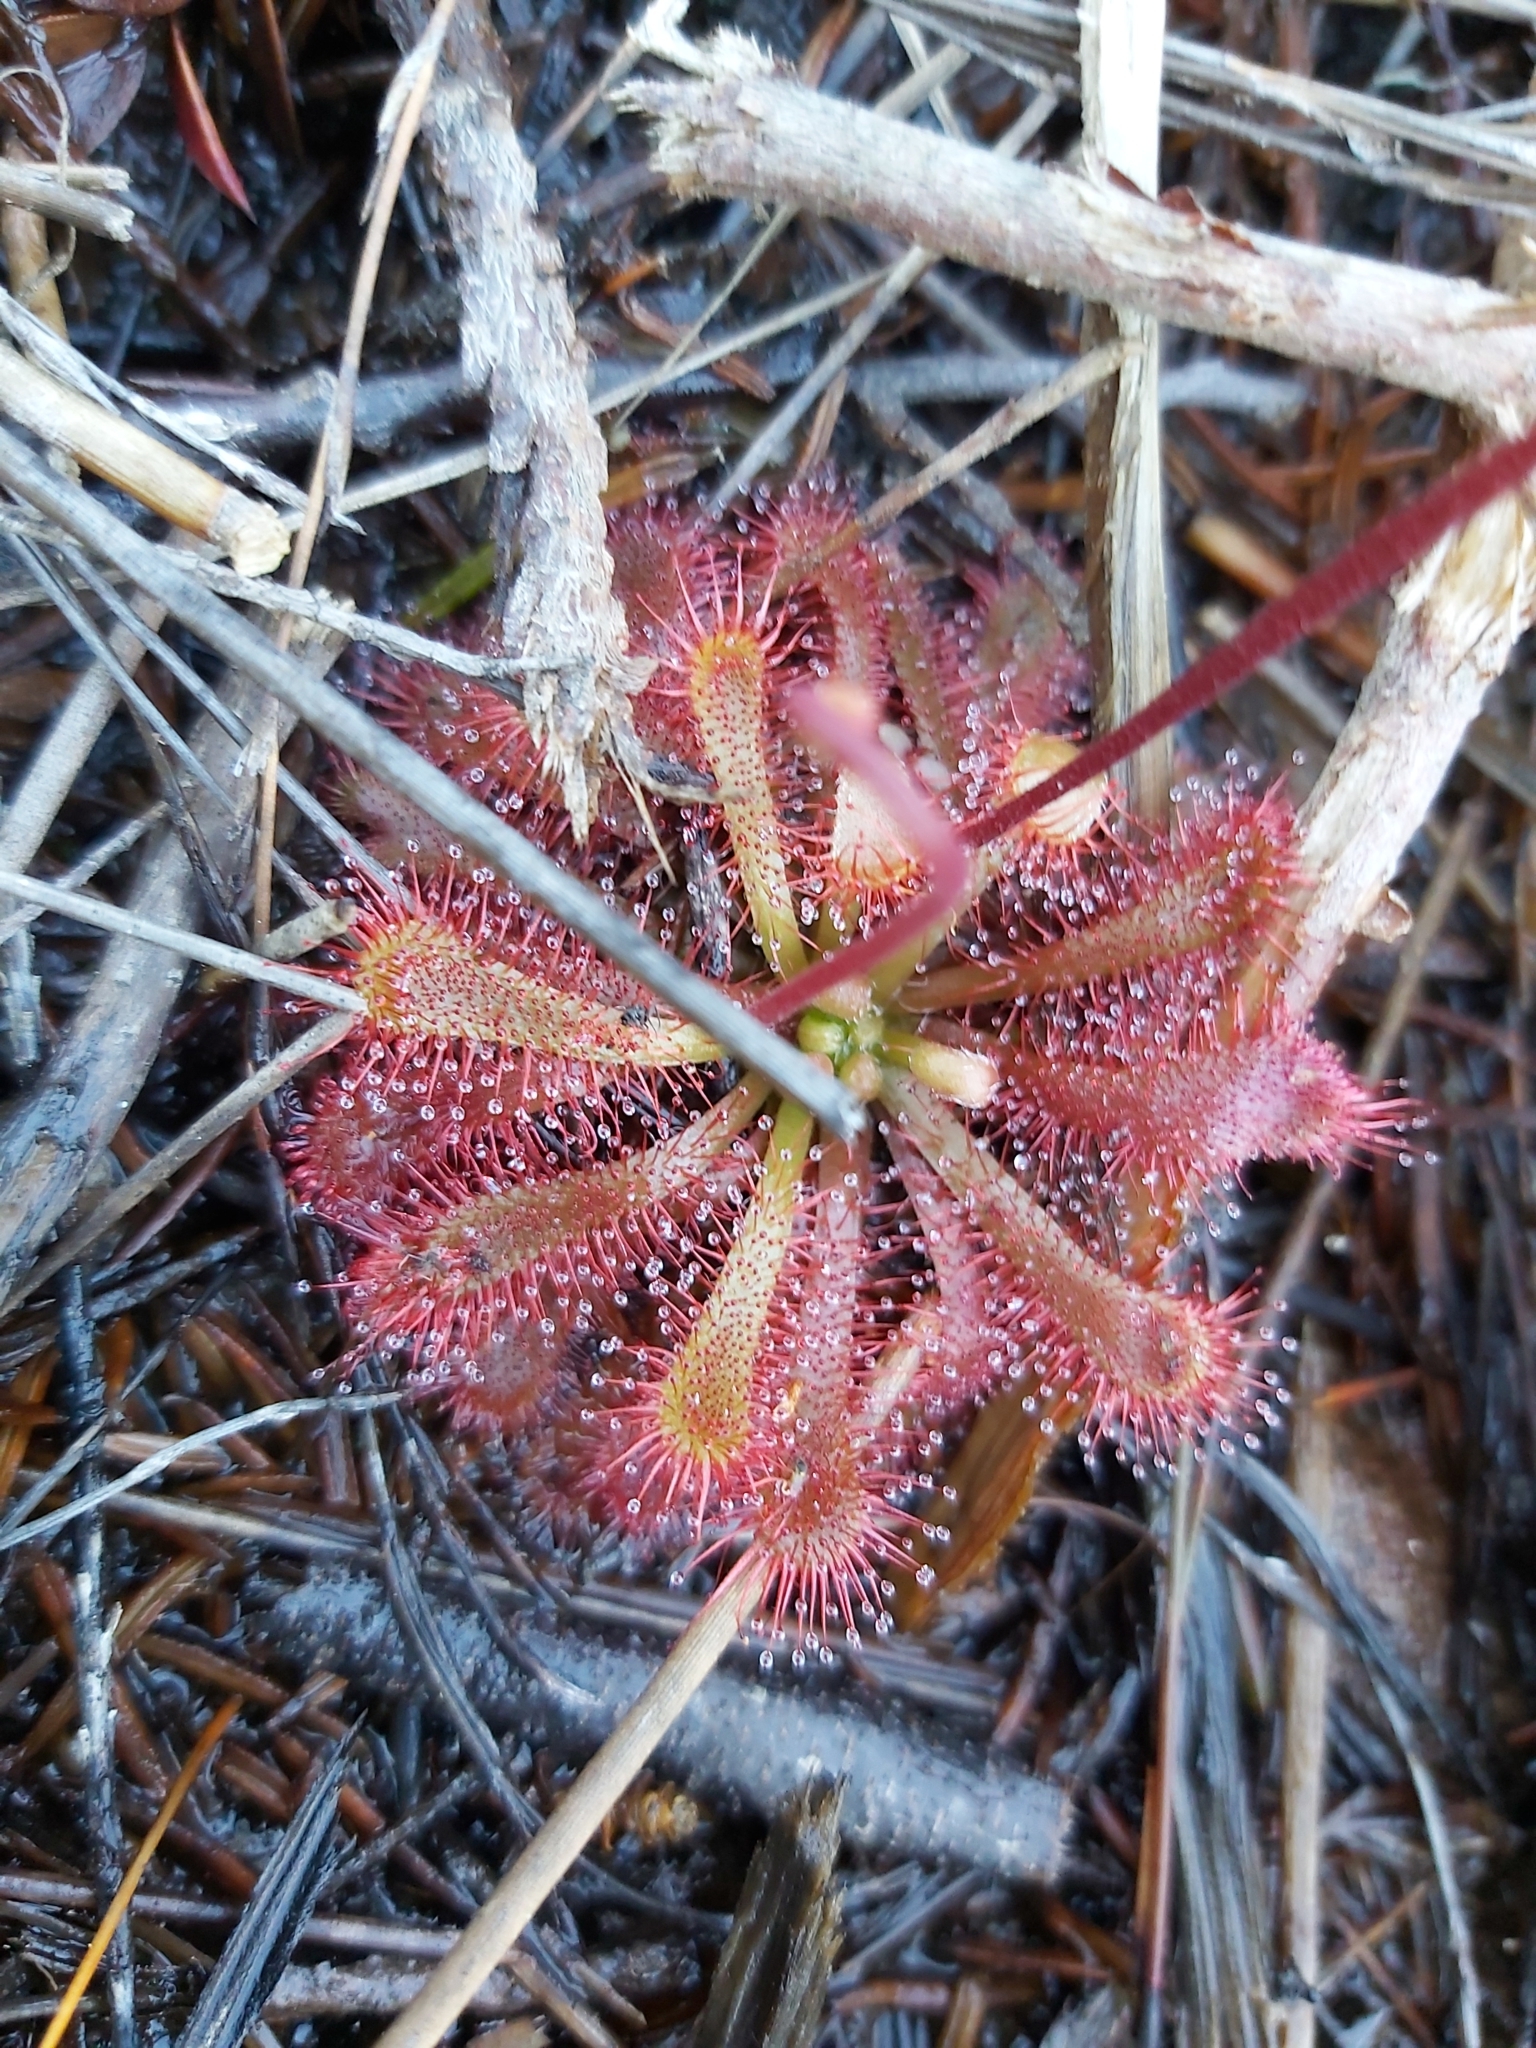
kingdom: Plantae
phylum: Tracheophyta
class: Magnoliopsida
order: Caryophyllales
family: Droseraceae
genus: Drosera
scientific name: Drosera spatulata
